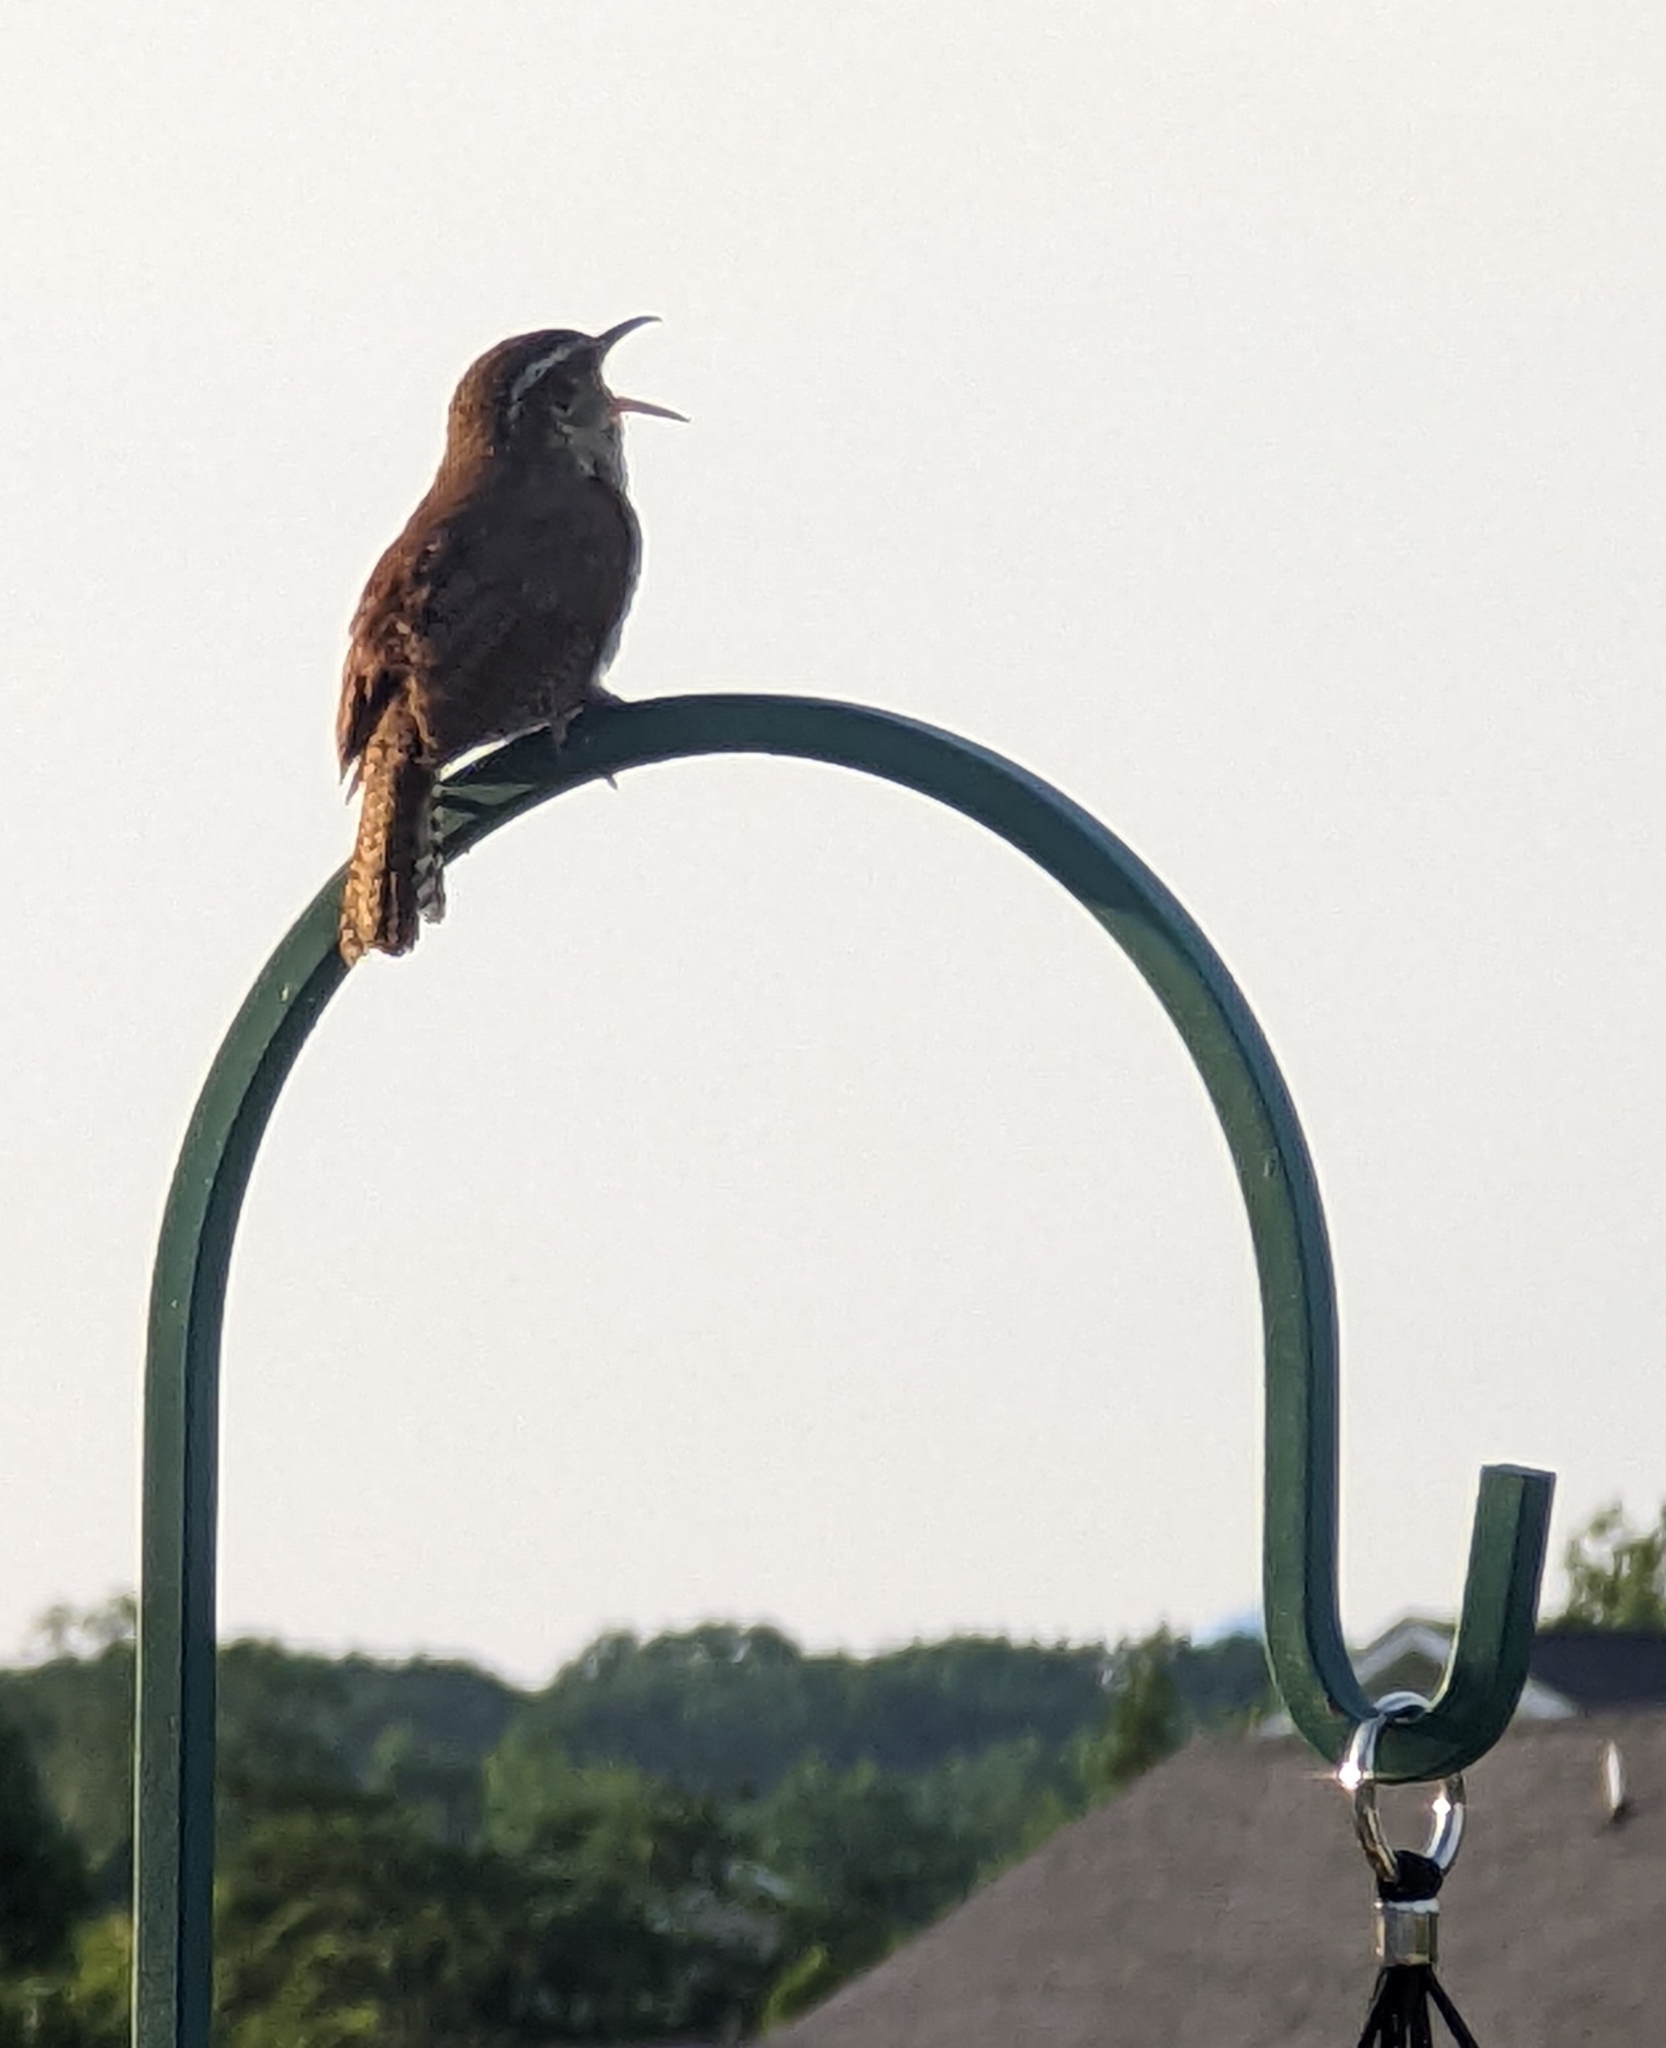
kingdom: Animalia
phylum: Chordata
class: Aves
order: Passeriformes
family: Troglodytidae
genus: Thryothorus
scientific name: Thryothorus ludovicianus
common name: Carolina wren
